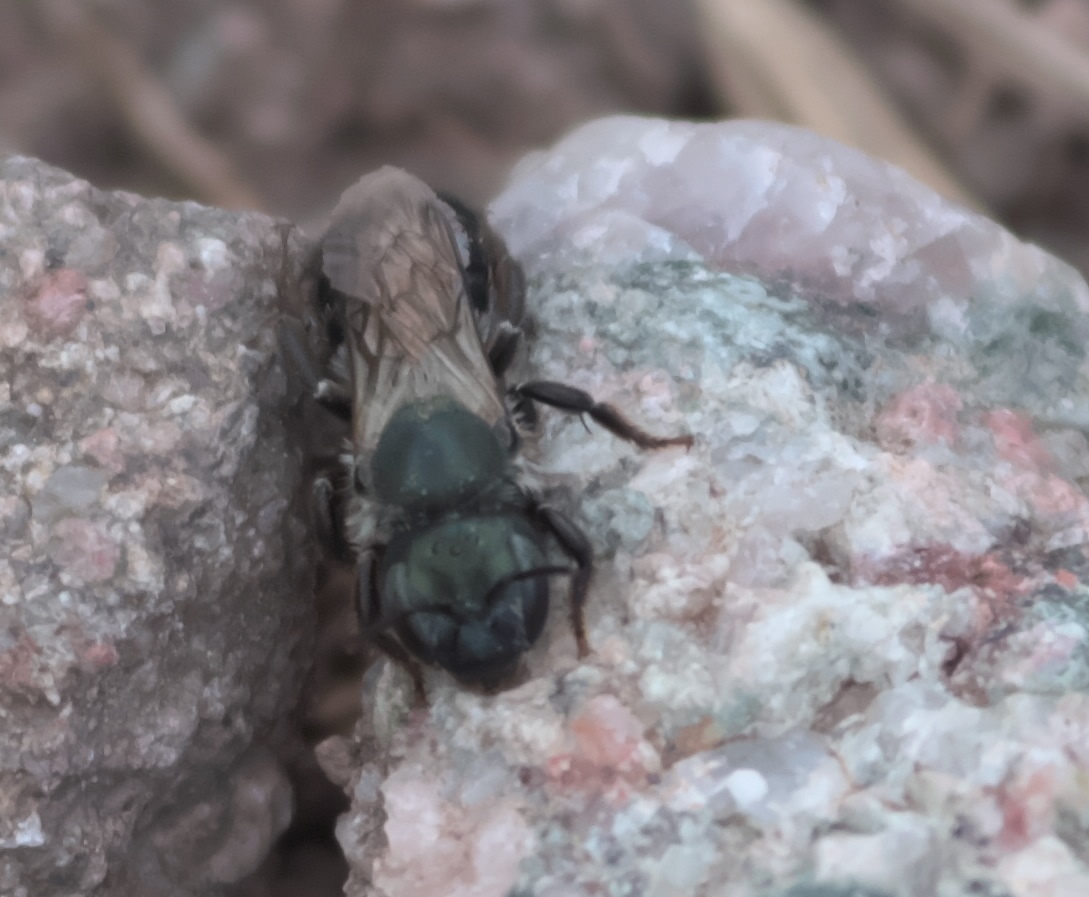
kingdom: Animalia
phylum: Arthropoda
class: Insecta
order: Hymenoptera
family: Megachilidae
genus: Osmia
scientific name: Osmia
